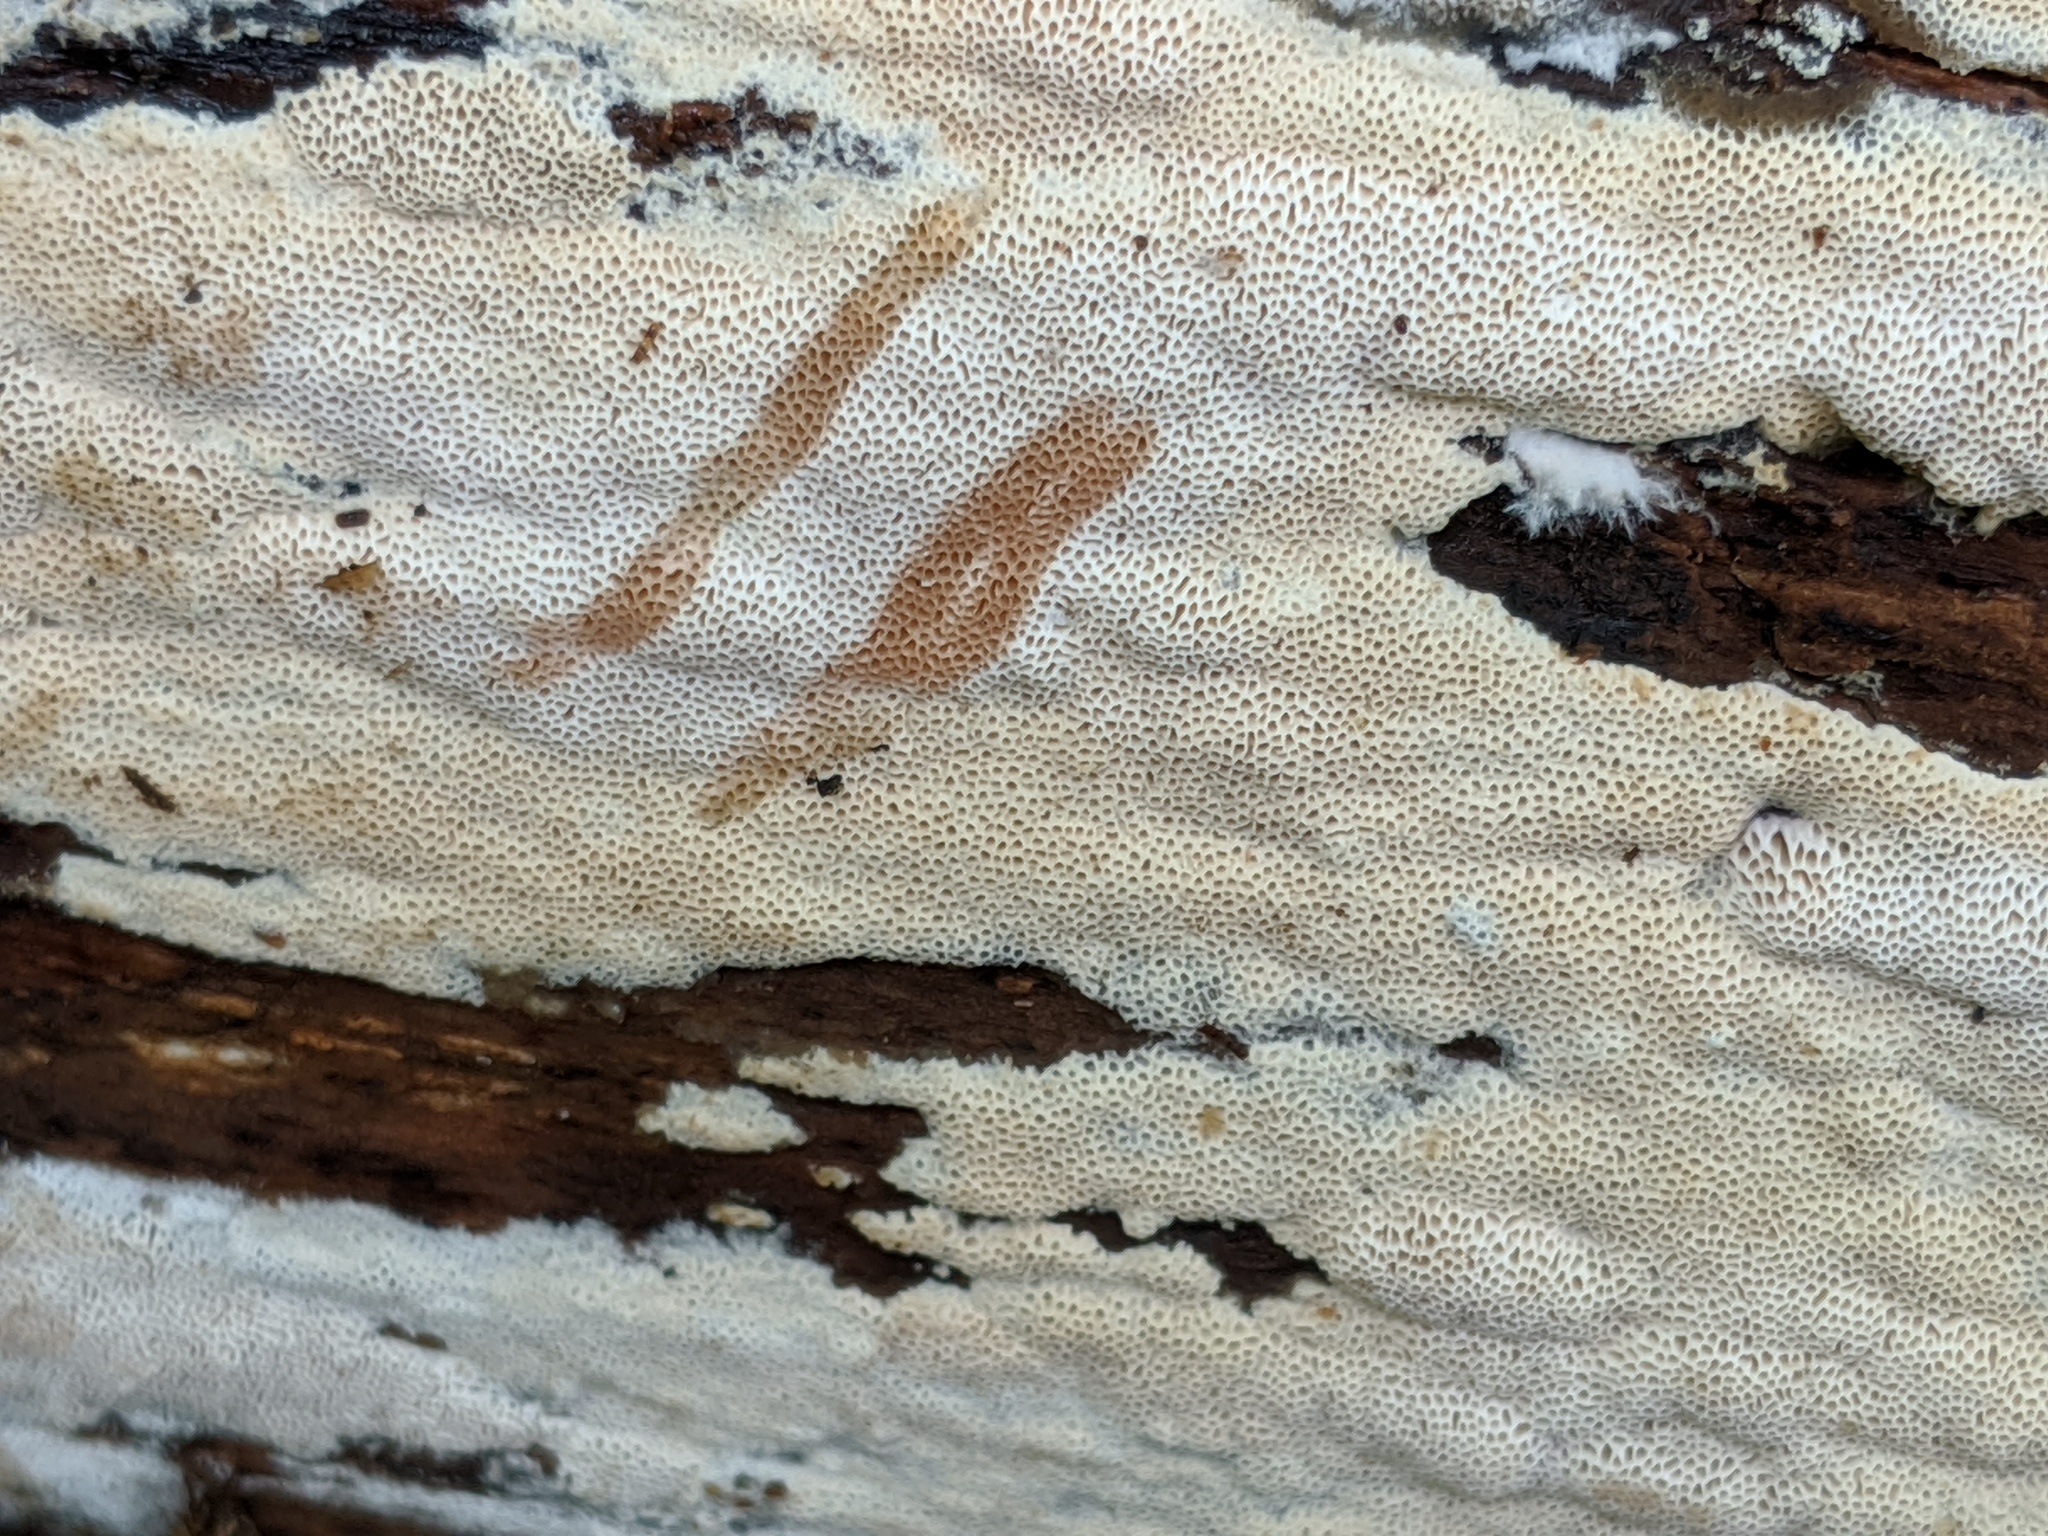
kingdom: Fungi
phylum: Basidiomycota
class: Agaricomycetes
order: Polyporales
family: Meruliaceae
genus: Mycoacia
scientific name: Mycoacia gilvescens
